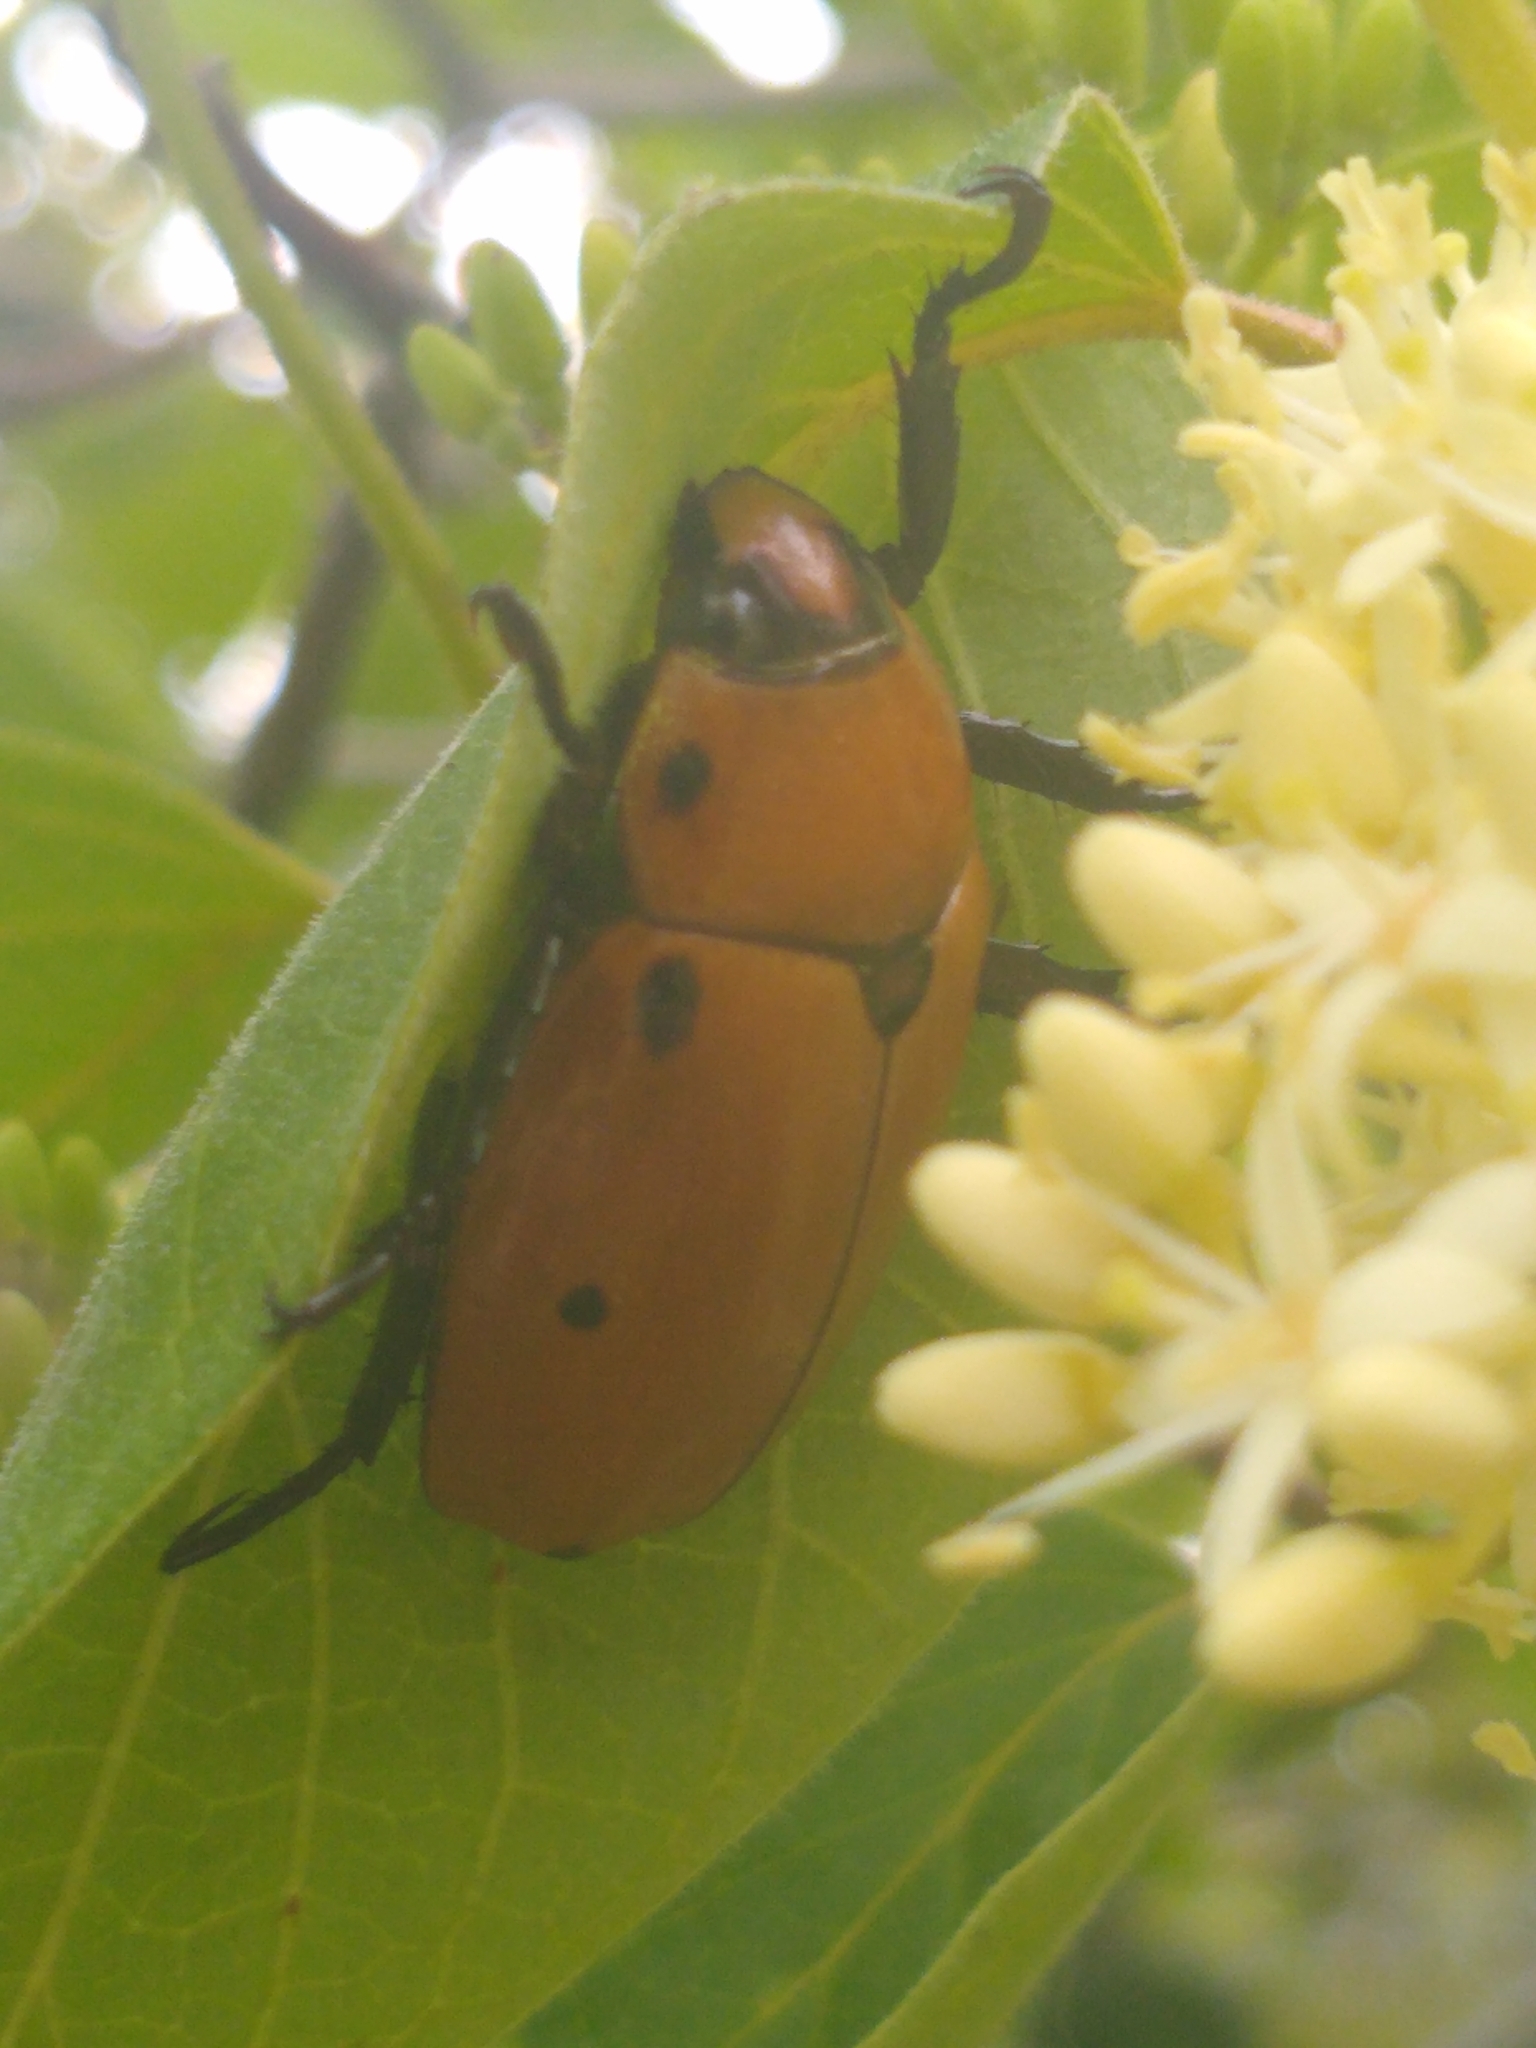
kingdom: Animalia
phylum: Arthropoda
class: Insecta
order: Coleoptera
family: Scarabaeidae
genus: Pelidnota
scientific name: Pelidnota punctata
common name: Grapevine beetle
